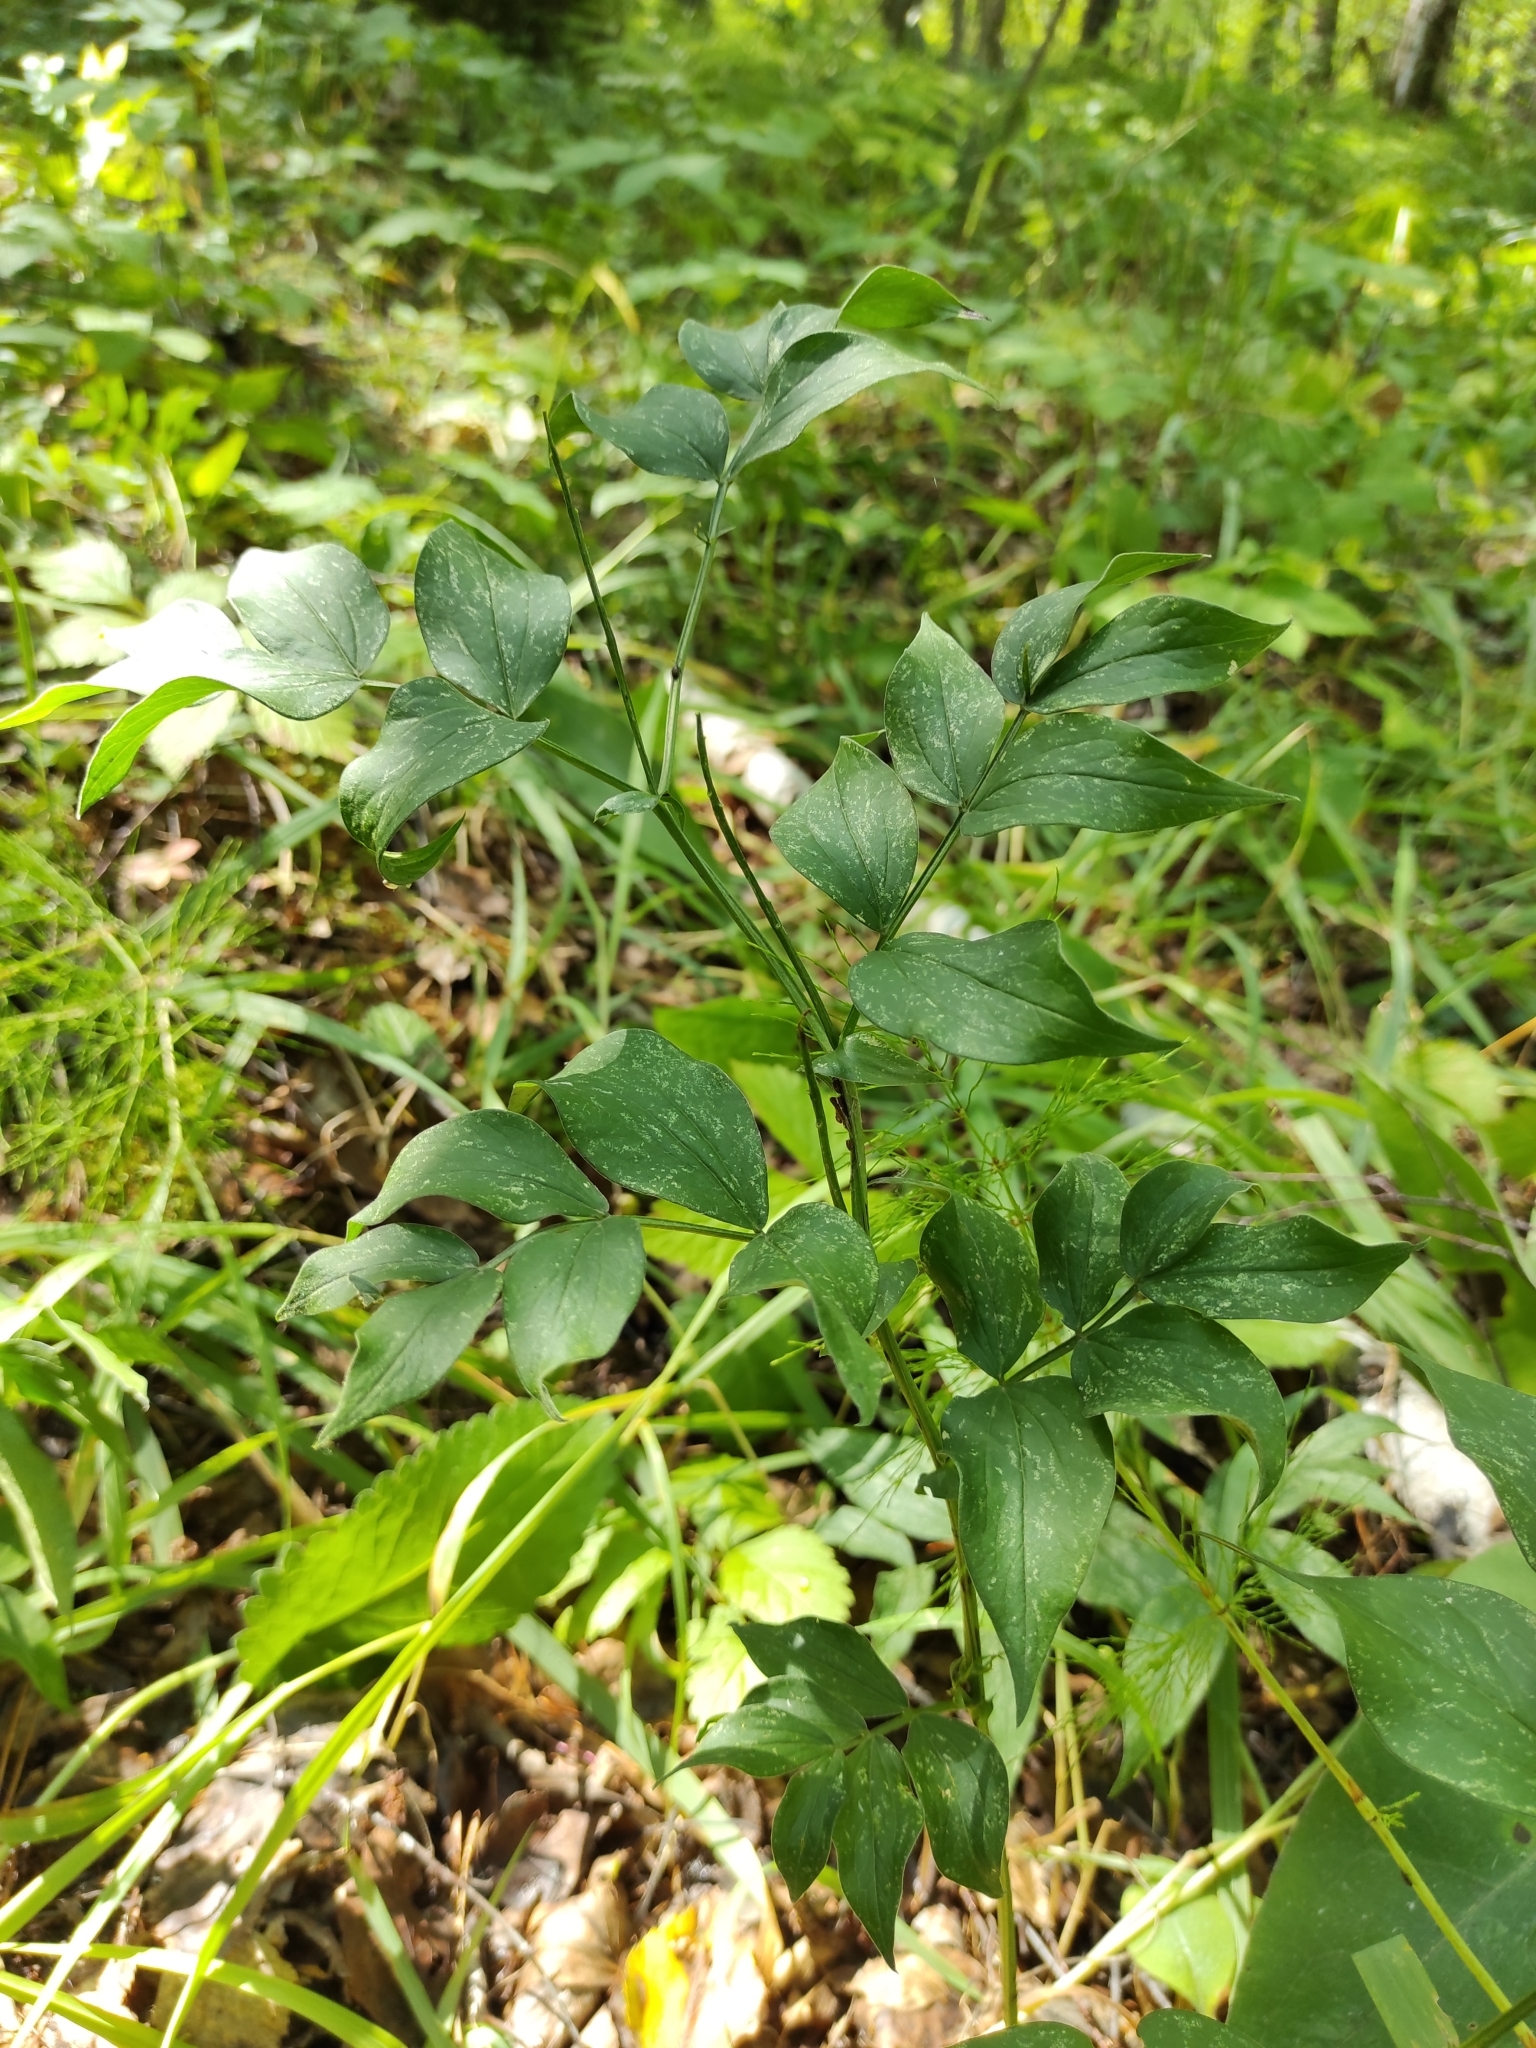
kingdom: Plantae
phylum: Tracheophyta
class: Magnoliopsida
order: Fabales
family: Fabaceae
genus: Lathyrus
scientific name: Lathyrus vernus
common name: Spring pea
